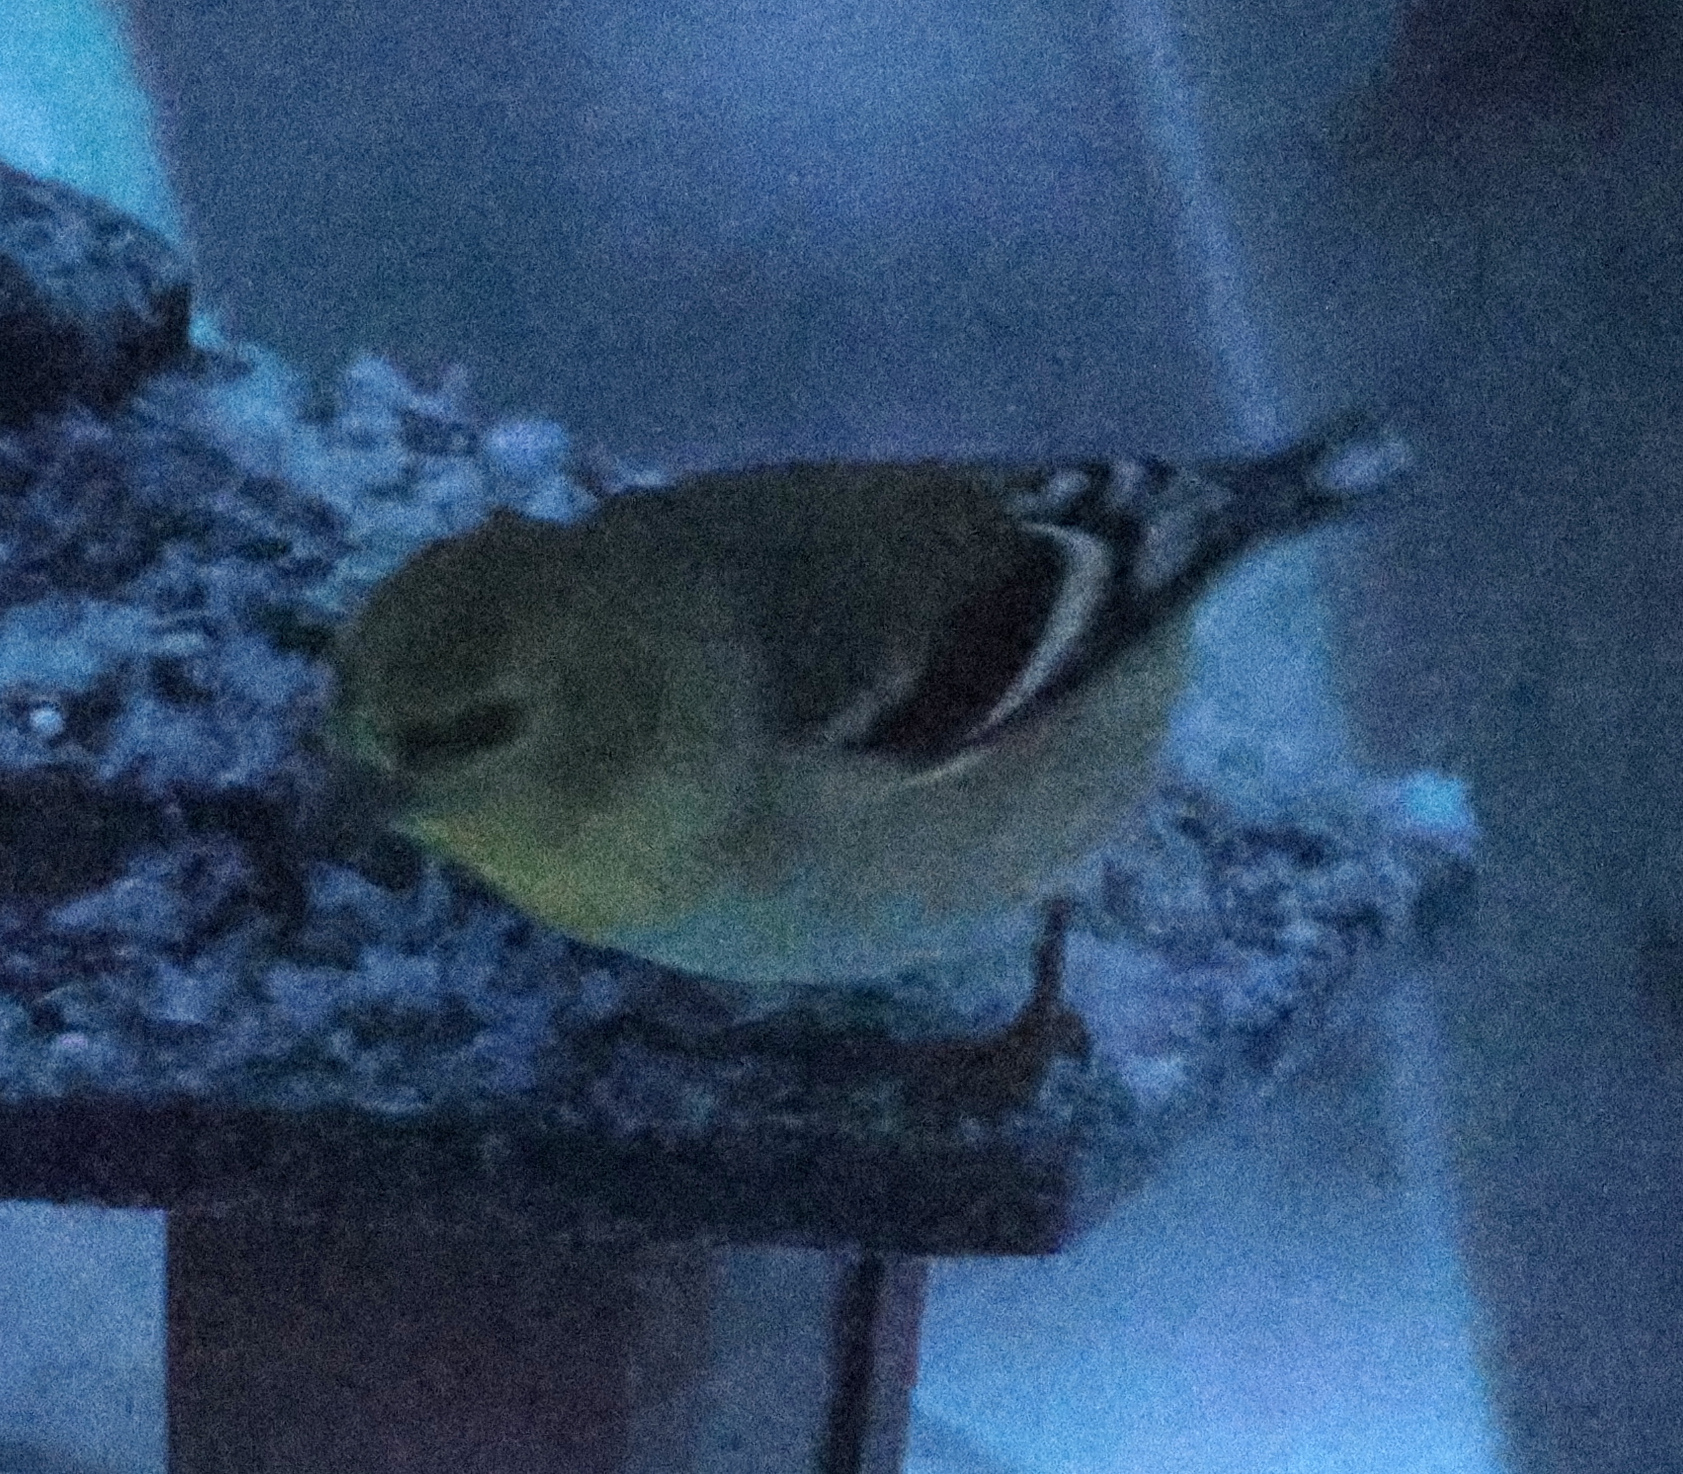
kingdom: Animalia
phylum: Chordata
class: Aves
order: Passeriformes
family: Fringillidae
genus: Spinus
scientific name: Spinus tristis
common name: American goldfinch
